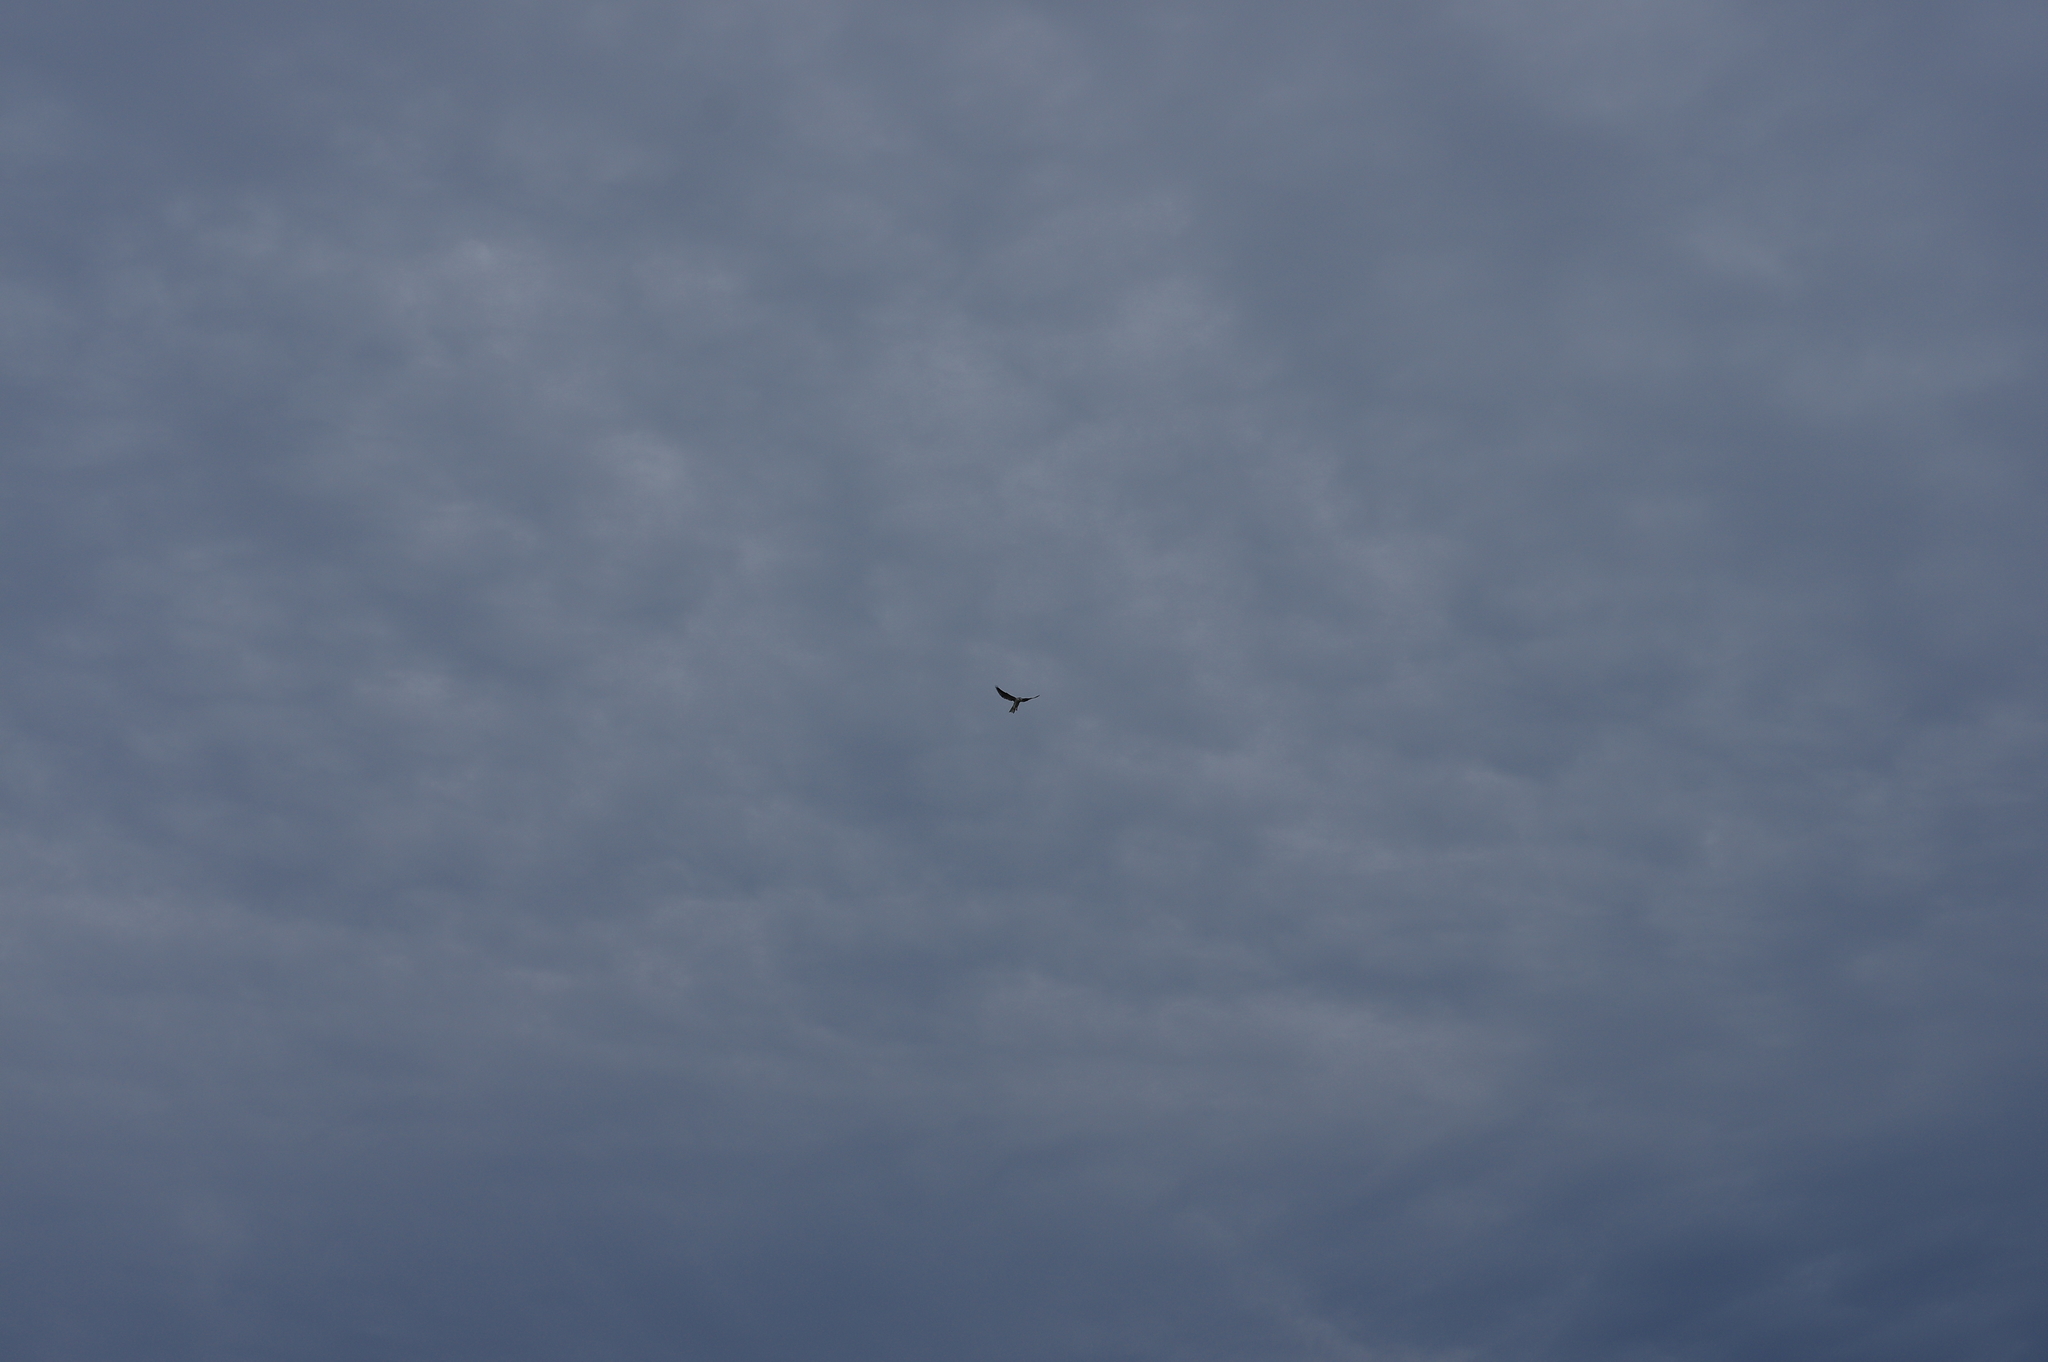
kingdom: Animalia
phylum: Chordata
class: Aves
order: Accipitriformes
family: Accipitridae
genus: Elanus
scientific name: Elanus leucurus
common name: White-tailed kite
